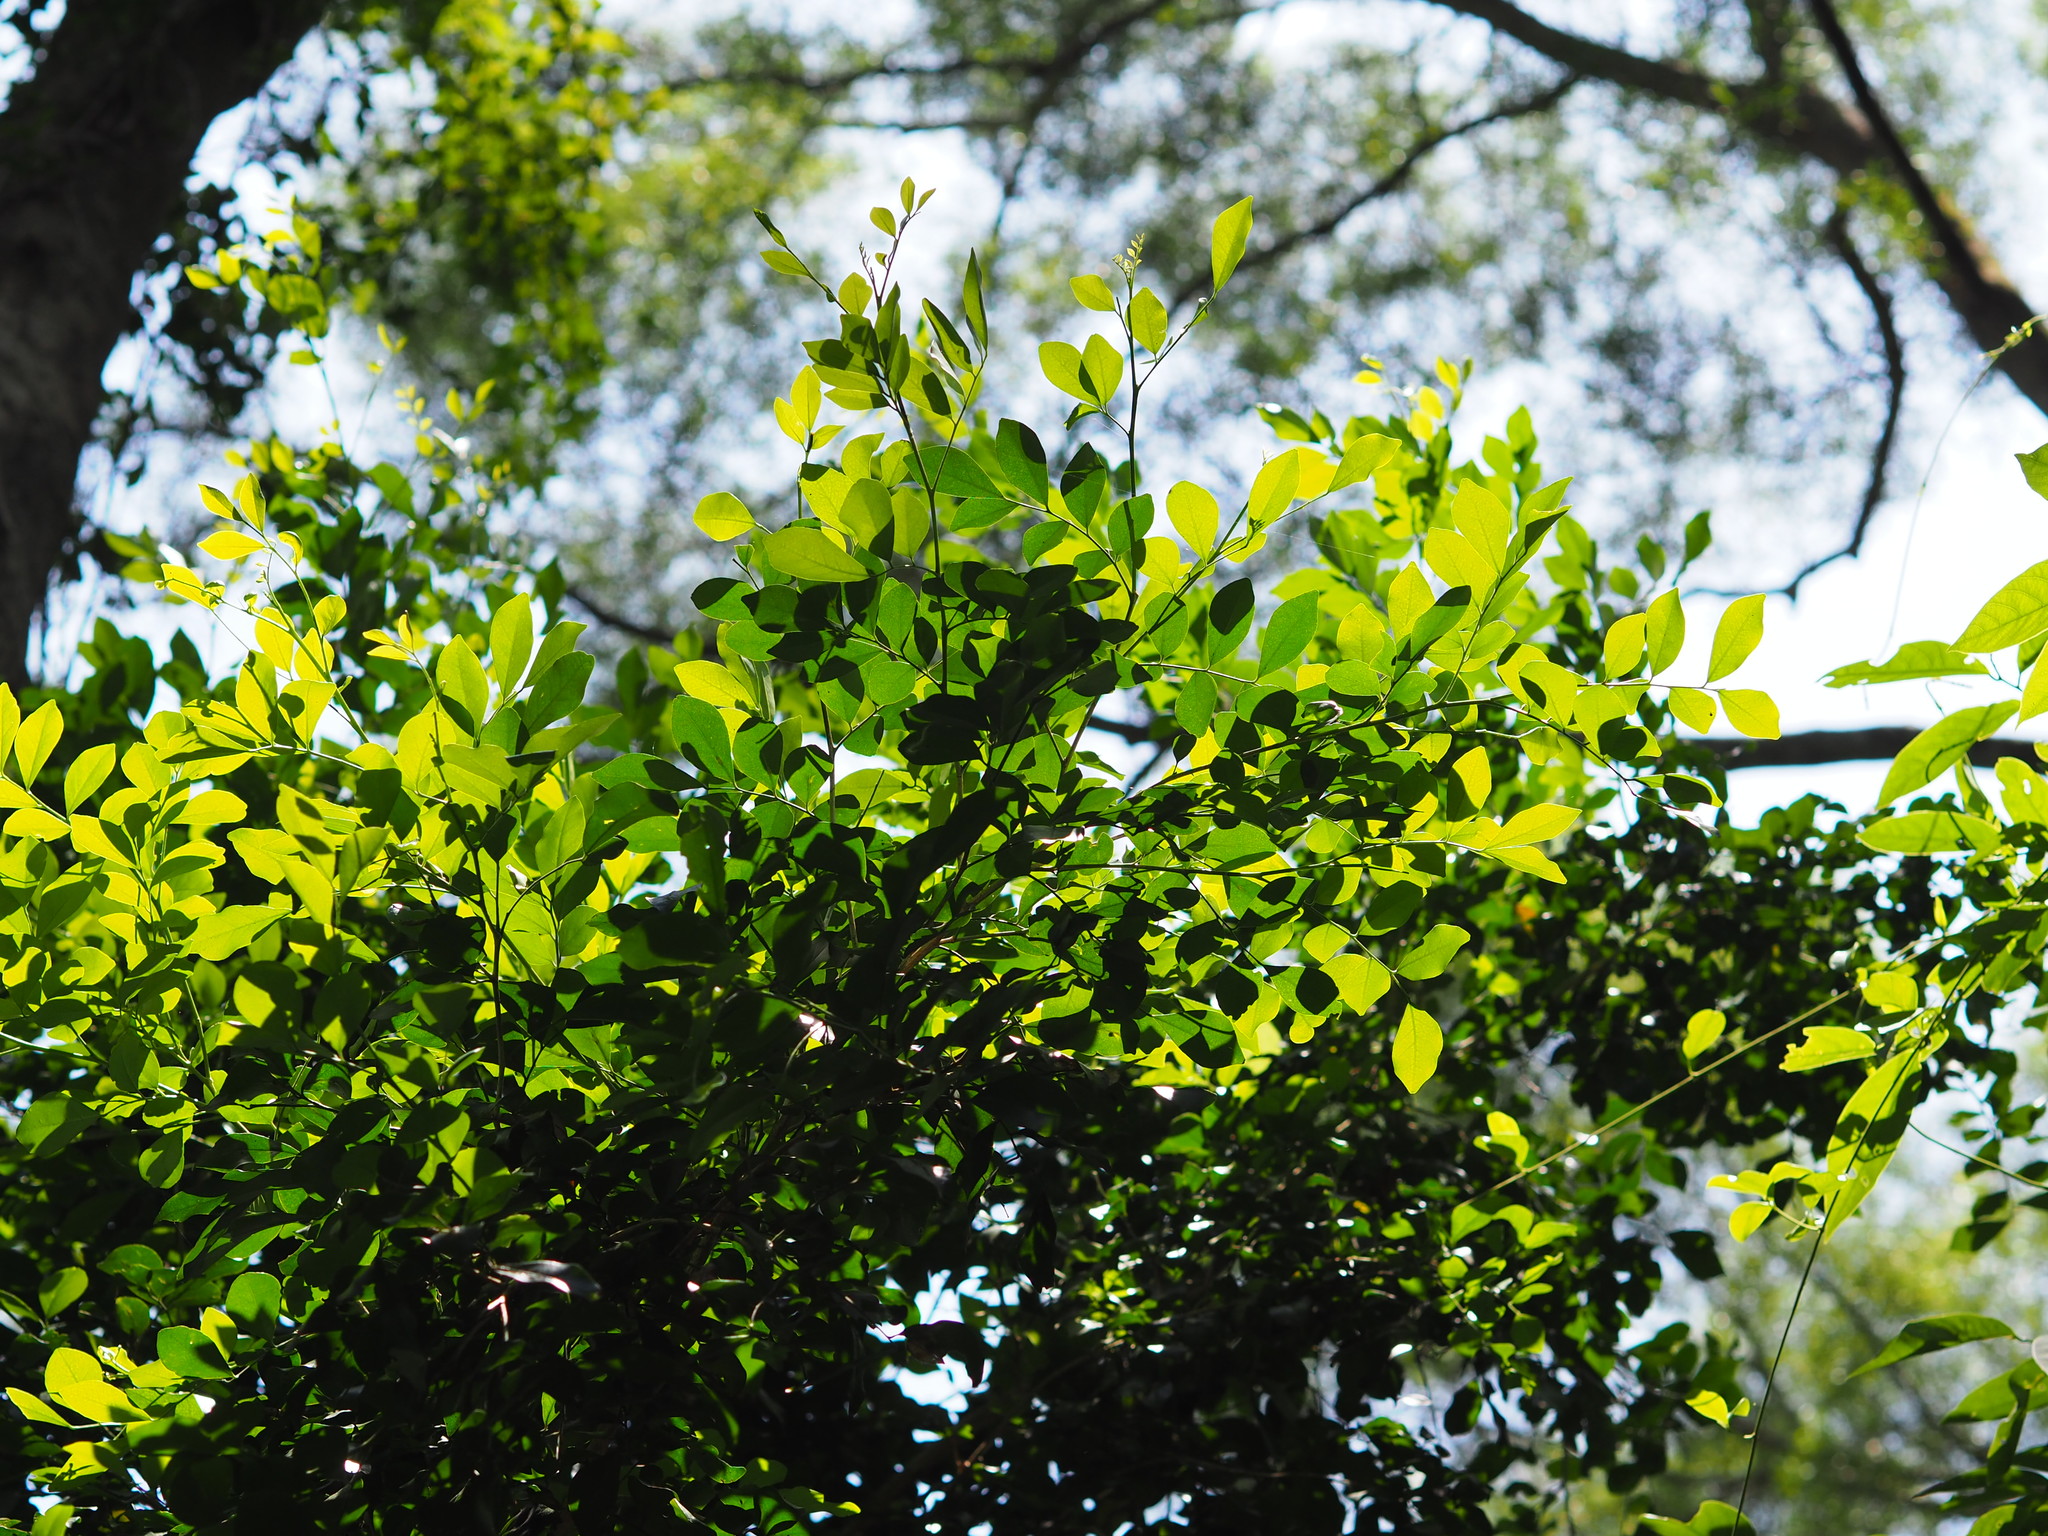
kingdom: Plantae
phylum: Tracheophyta
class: Magnoliopsida
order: Sapindales
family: Rutaceae
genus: Murraya
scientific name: Murraya paniculata
